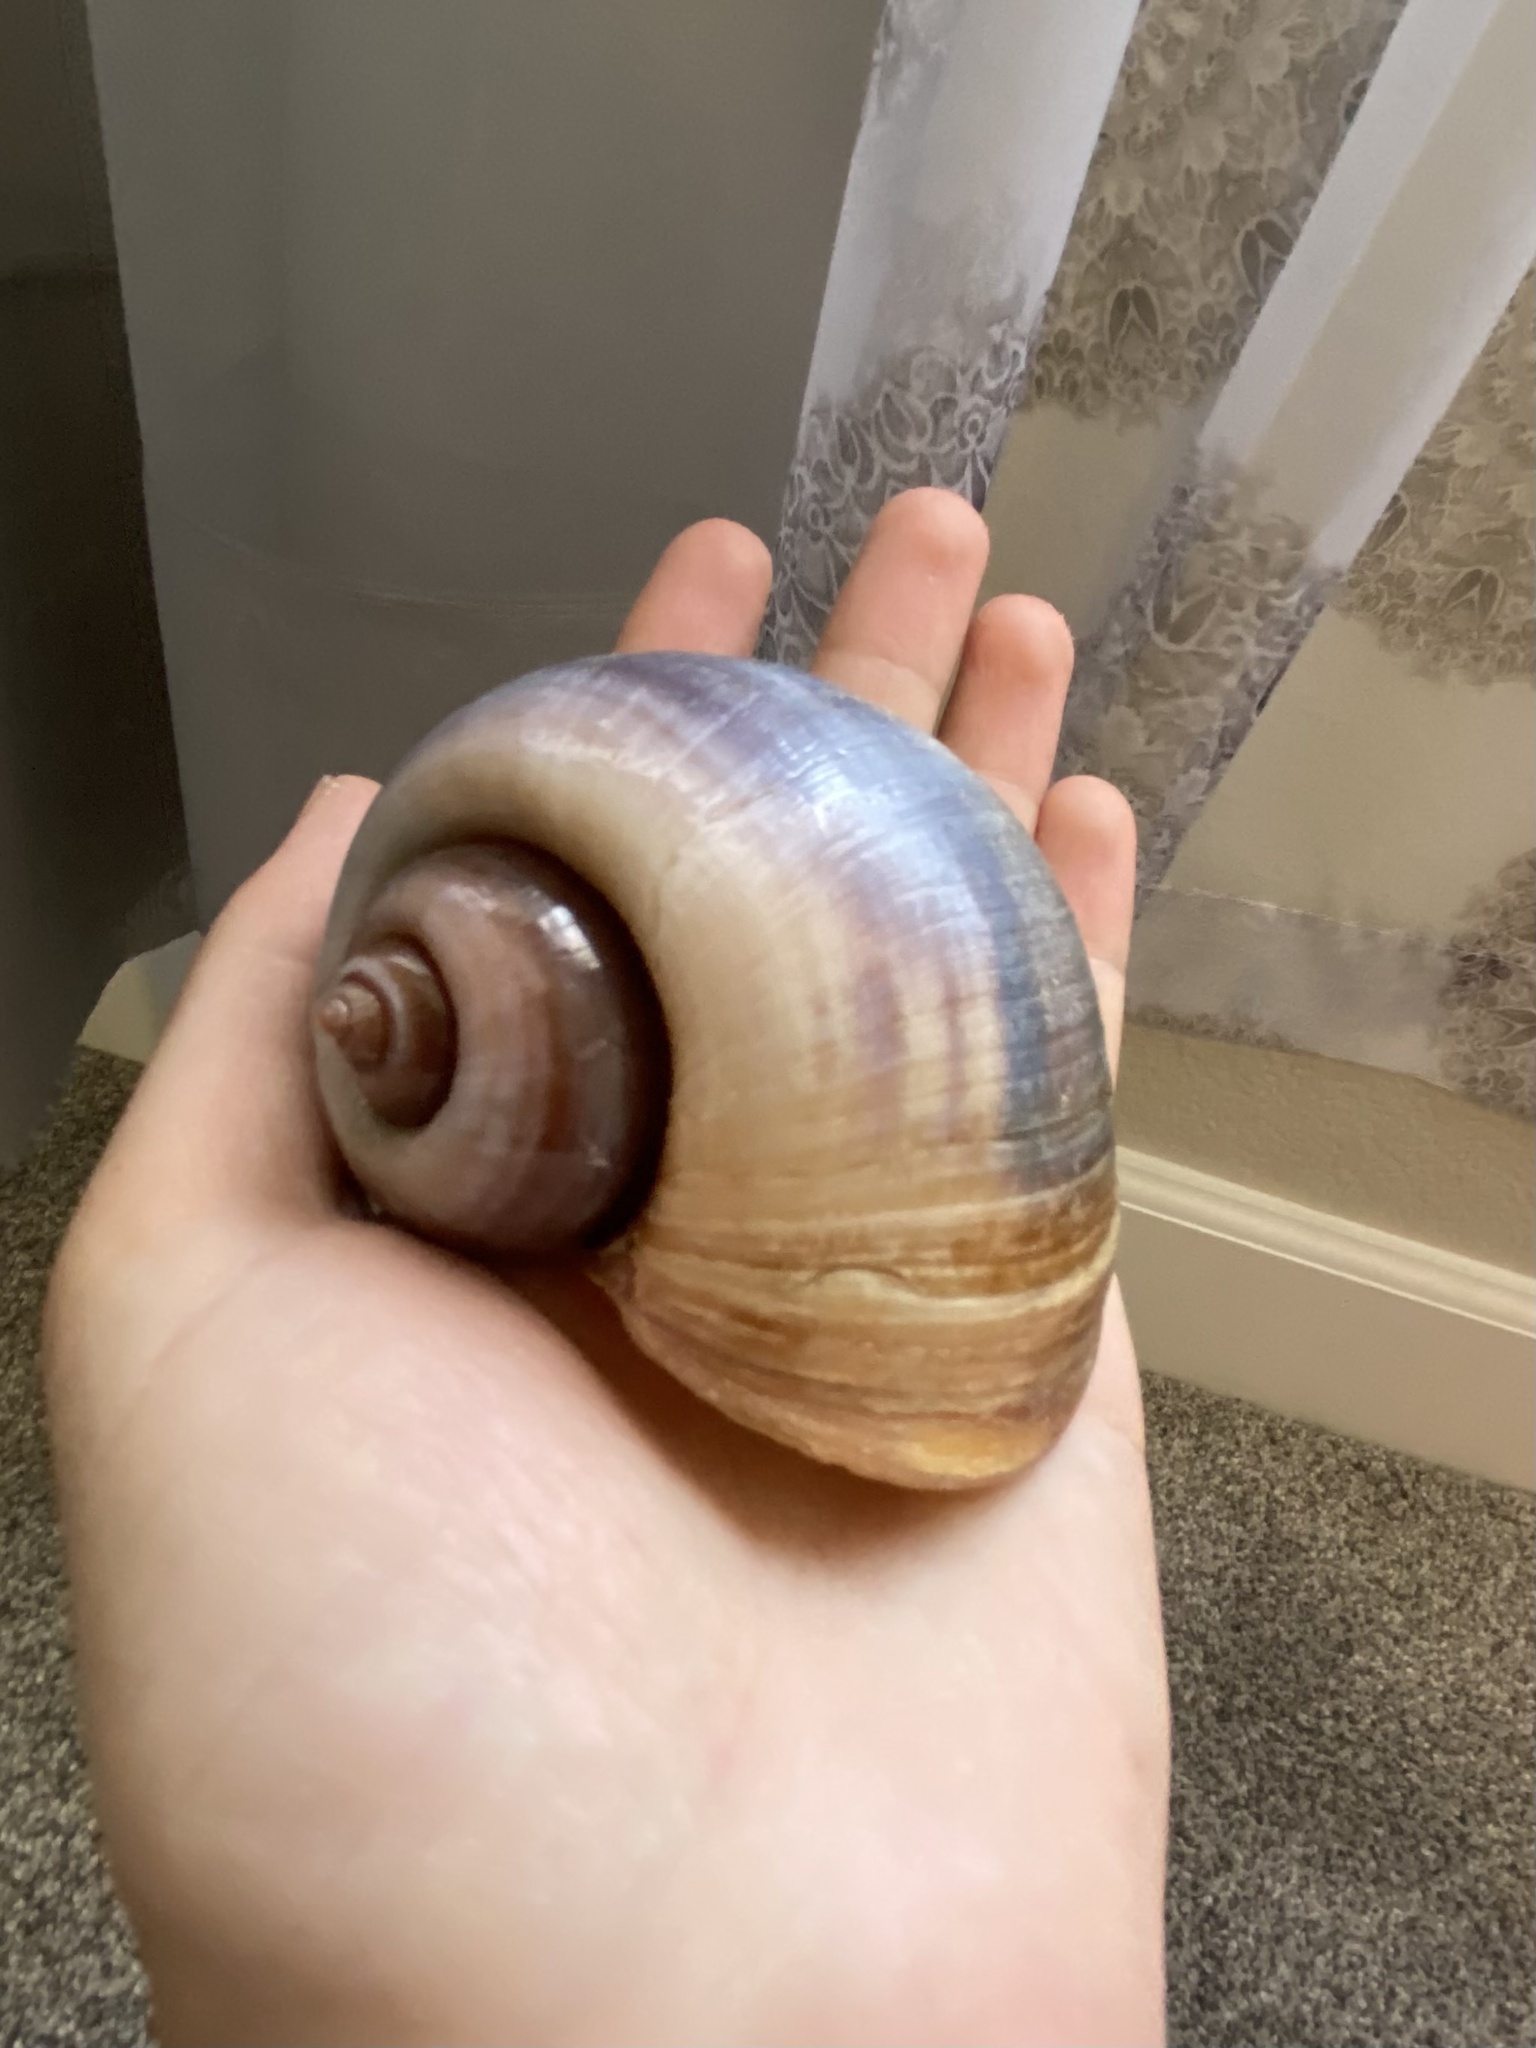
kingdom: Animalia
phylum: Mollusca
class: Gastropoda
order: Architaenioglossa
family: Ampullariidae
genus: Pomacea
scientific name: Pomacea maculata
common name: Giant applesnail
